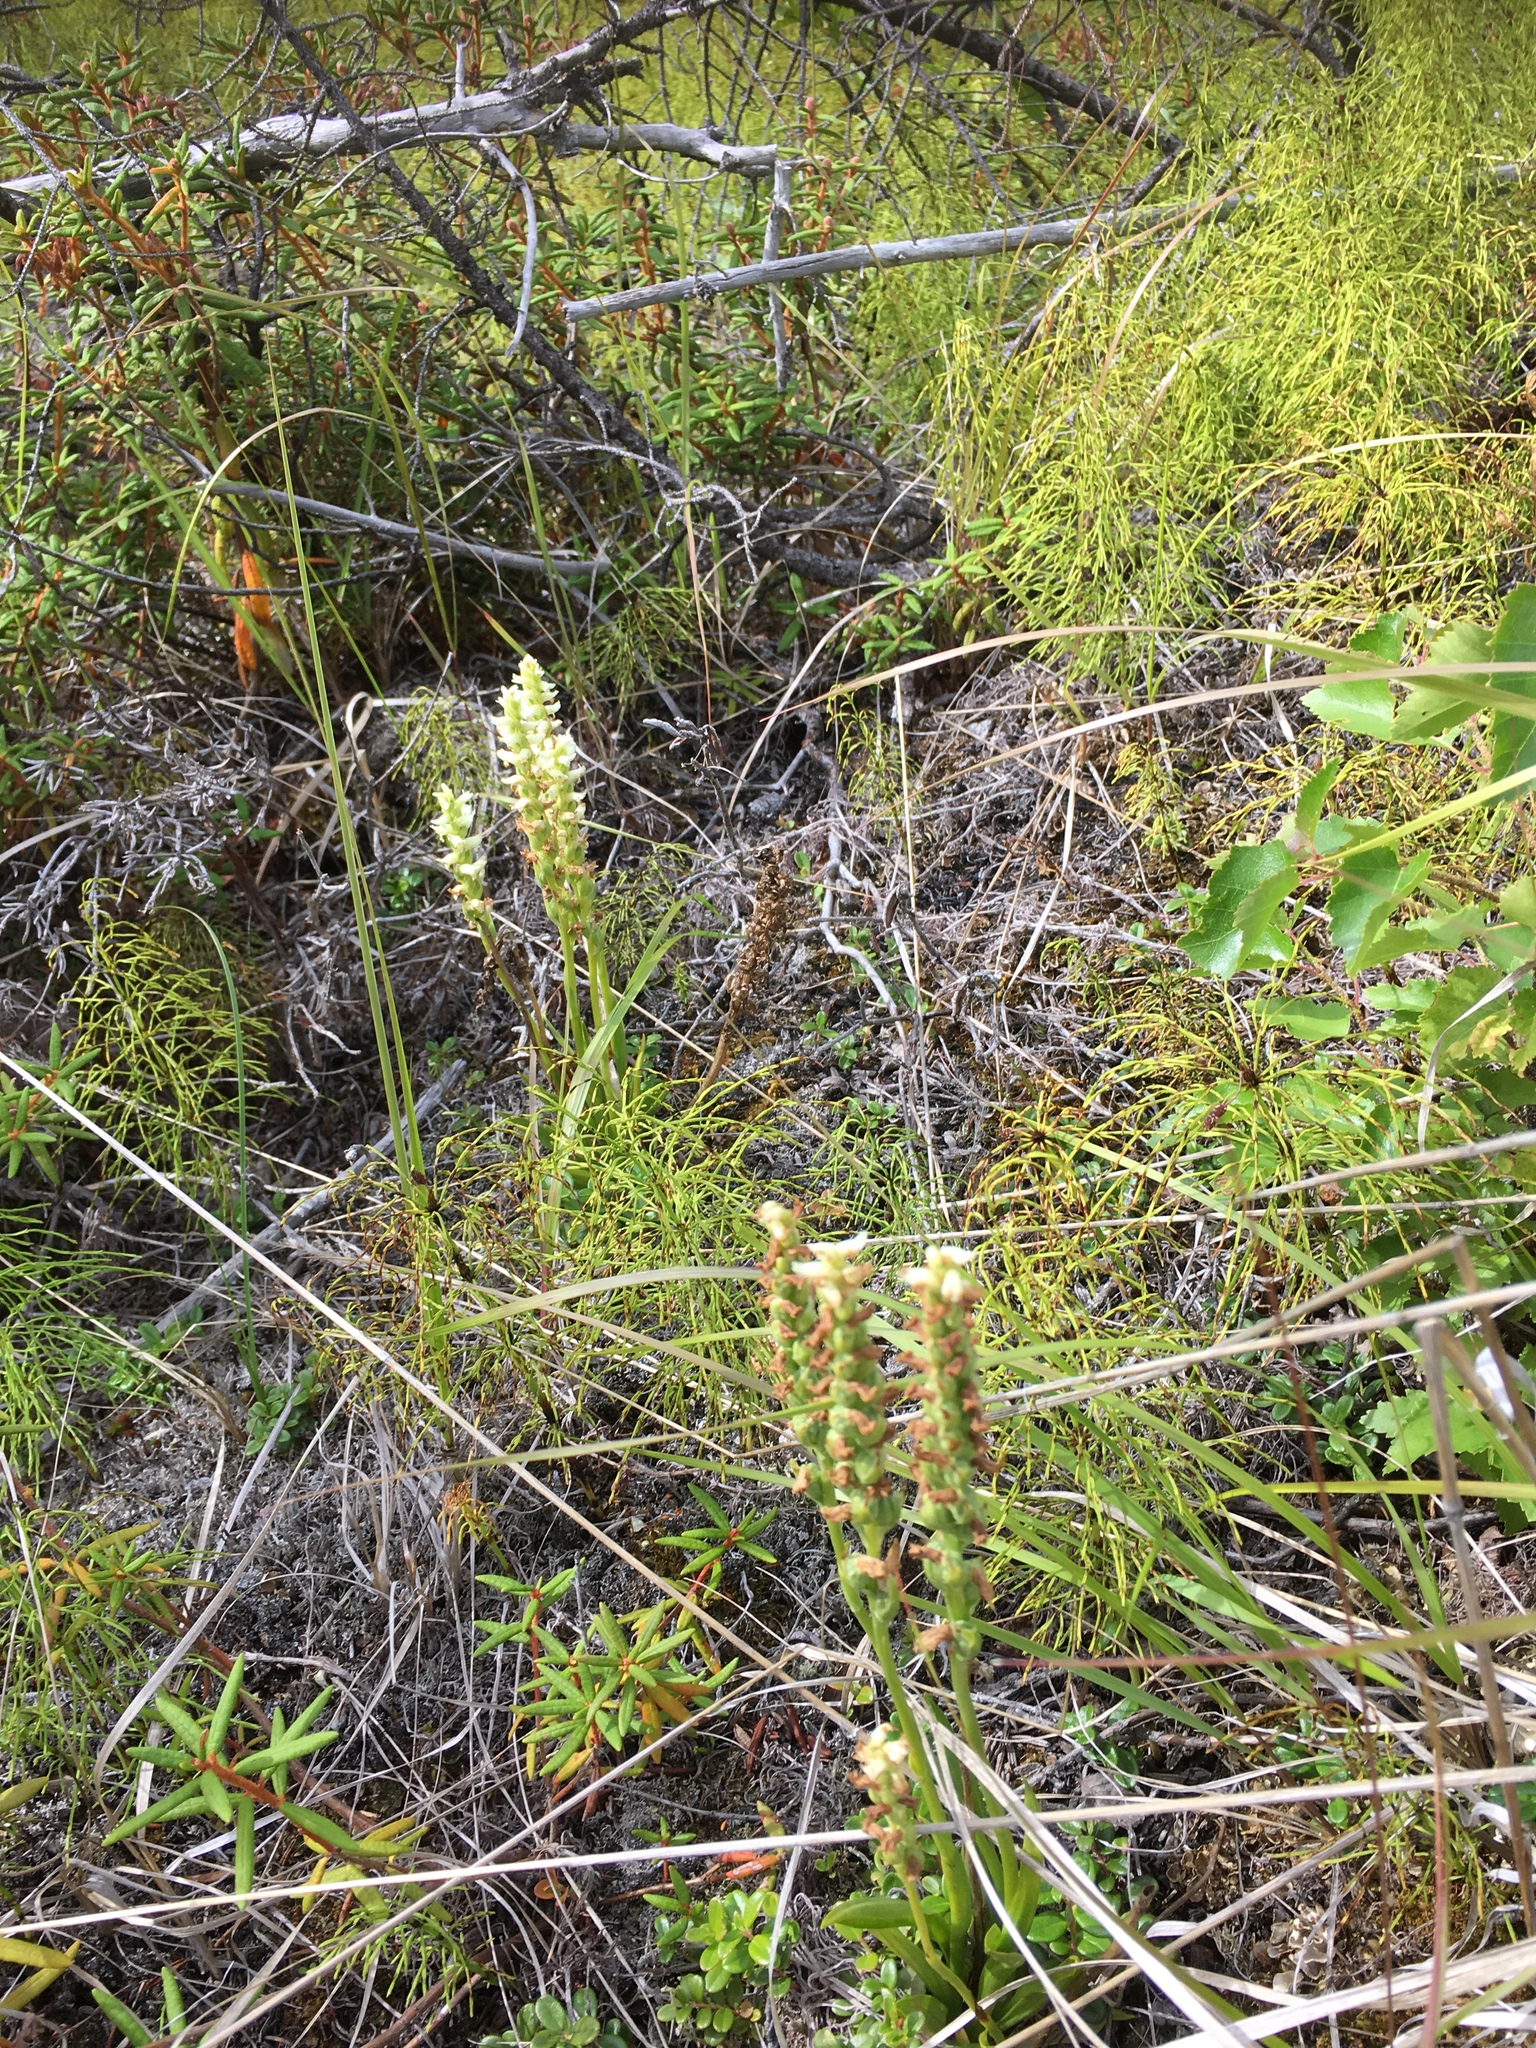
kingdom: Plantae
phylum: Tracheophyta
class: Liliopsida
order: Asparagales
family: Orchidaceae
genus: Spiranthes
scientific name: Spiranthes romanzoffiana
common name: Irish lady's-tresses
